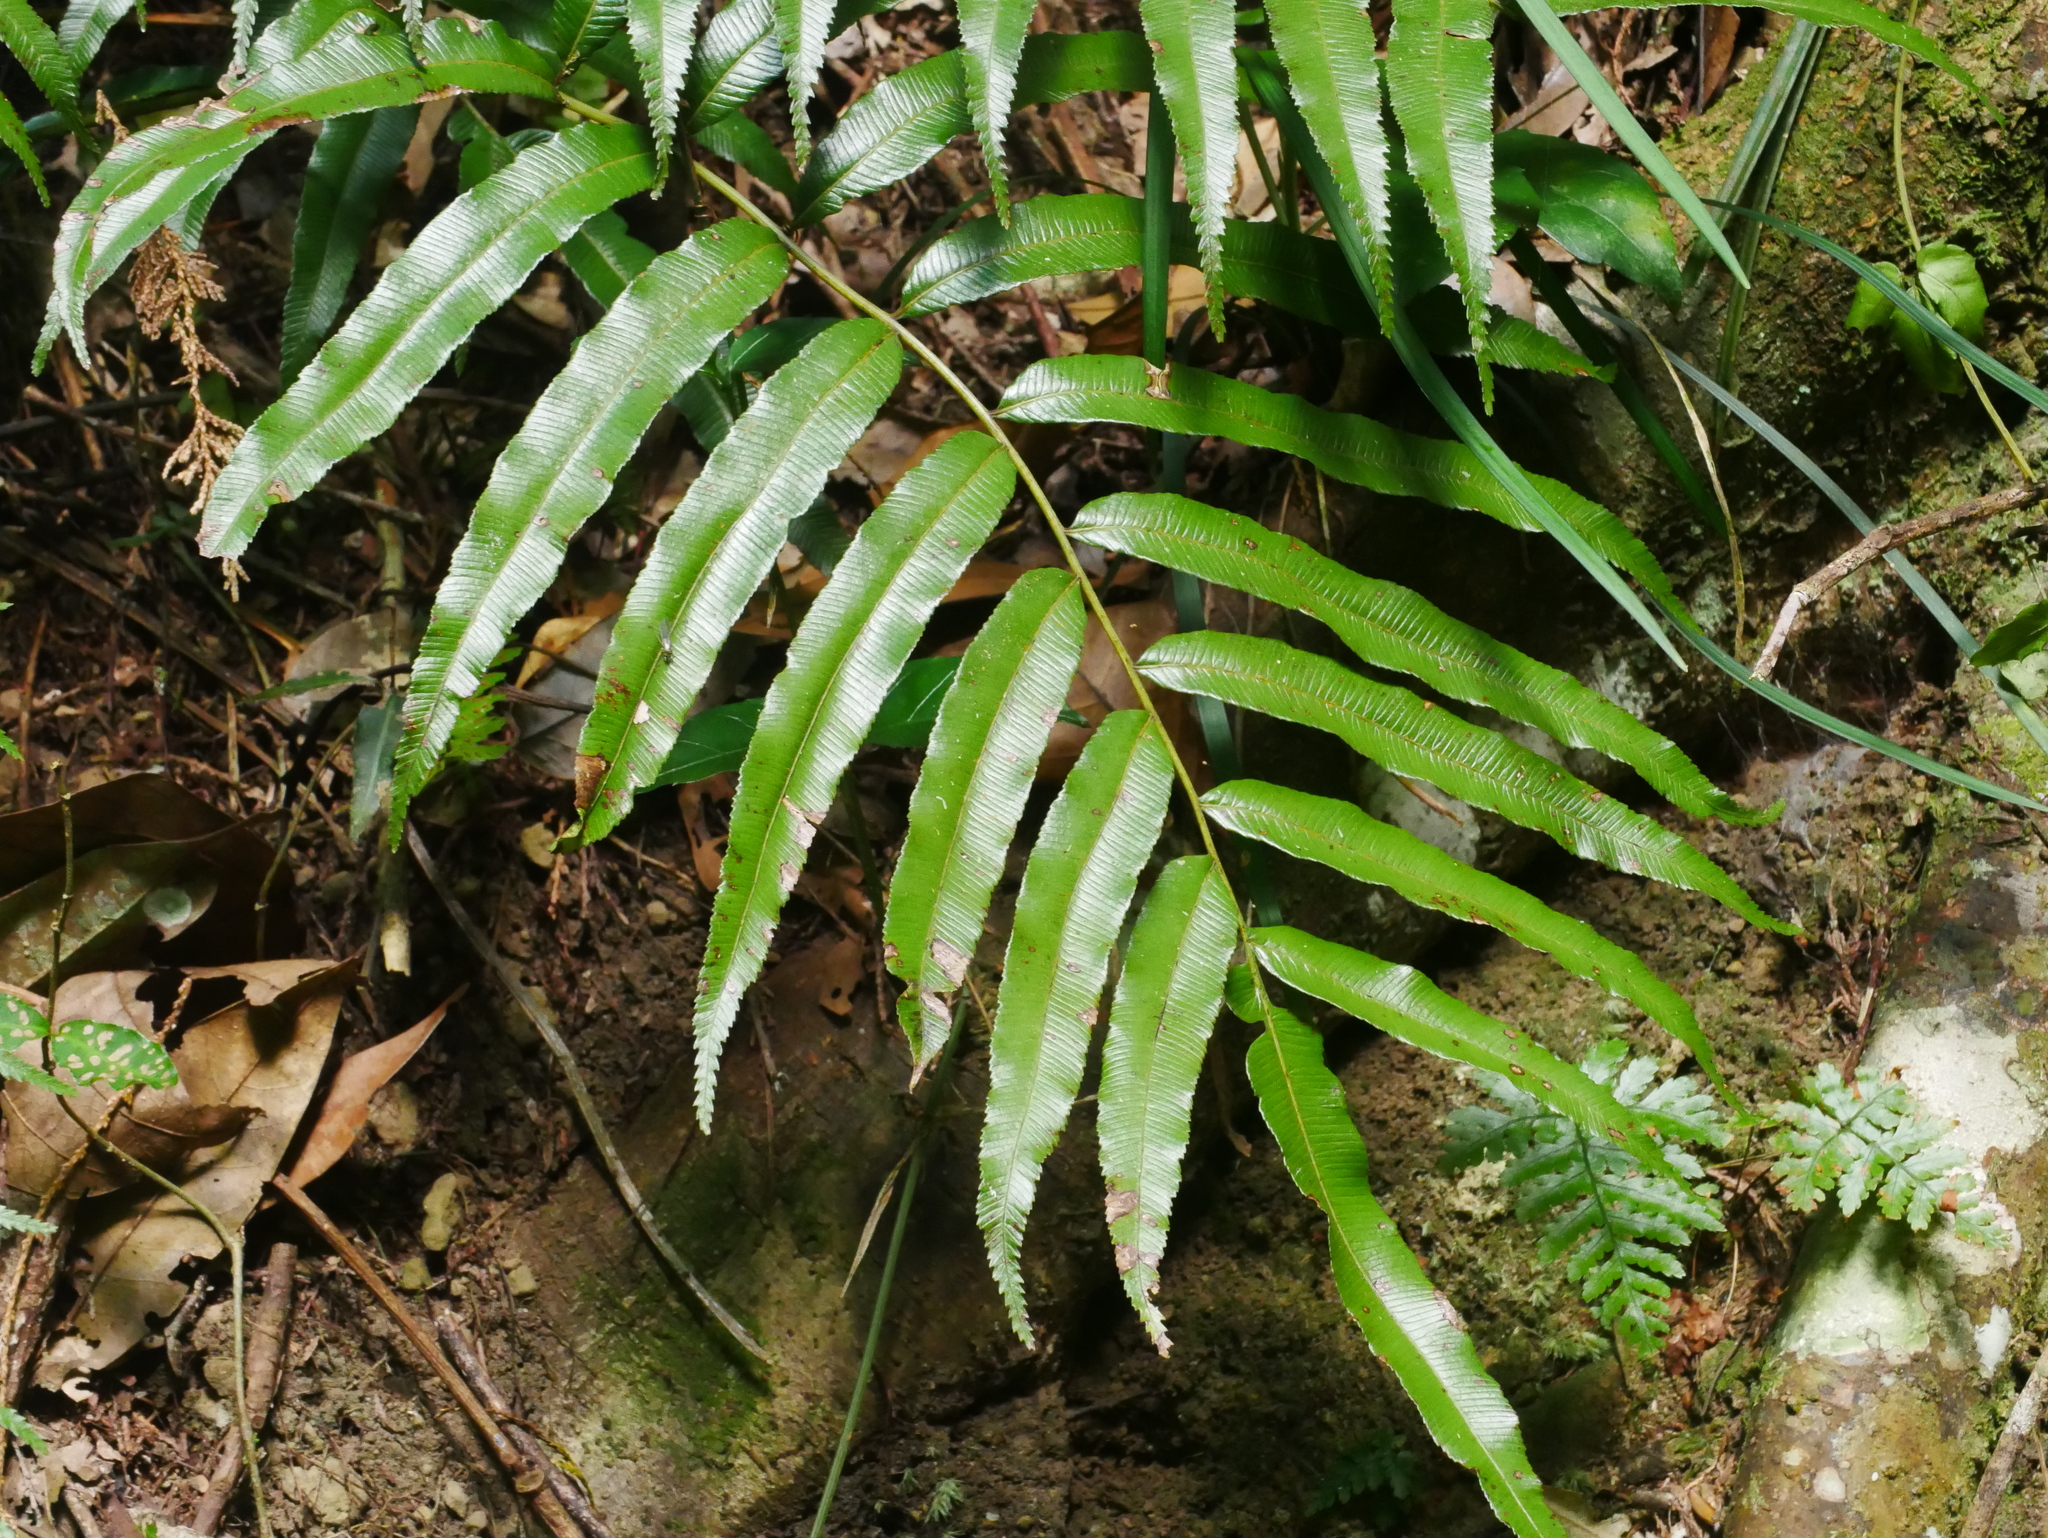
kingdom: Plantae
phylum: Tracheophyta
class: Polypodiopsida
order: Cyatheales
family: Plagiogyriaceae
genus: Plagiogyria
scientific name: Plagiogyria euphlebia
